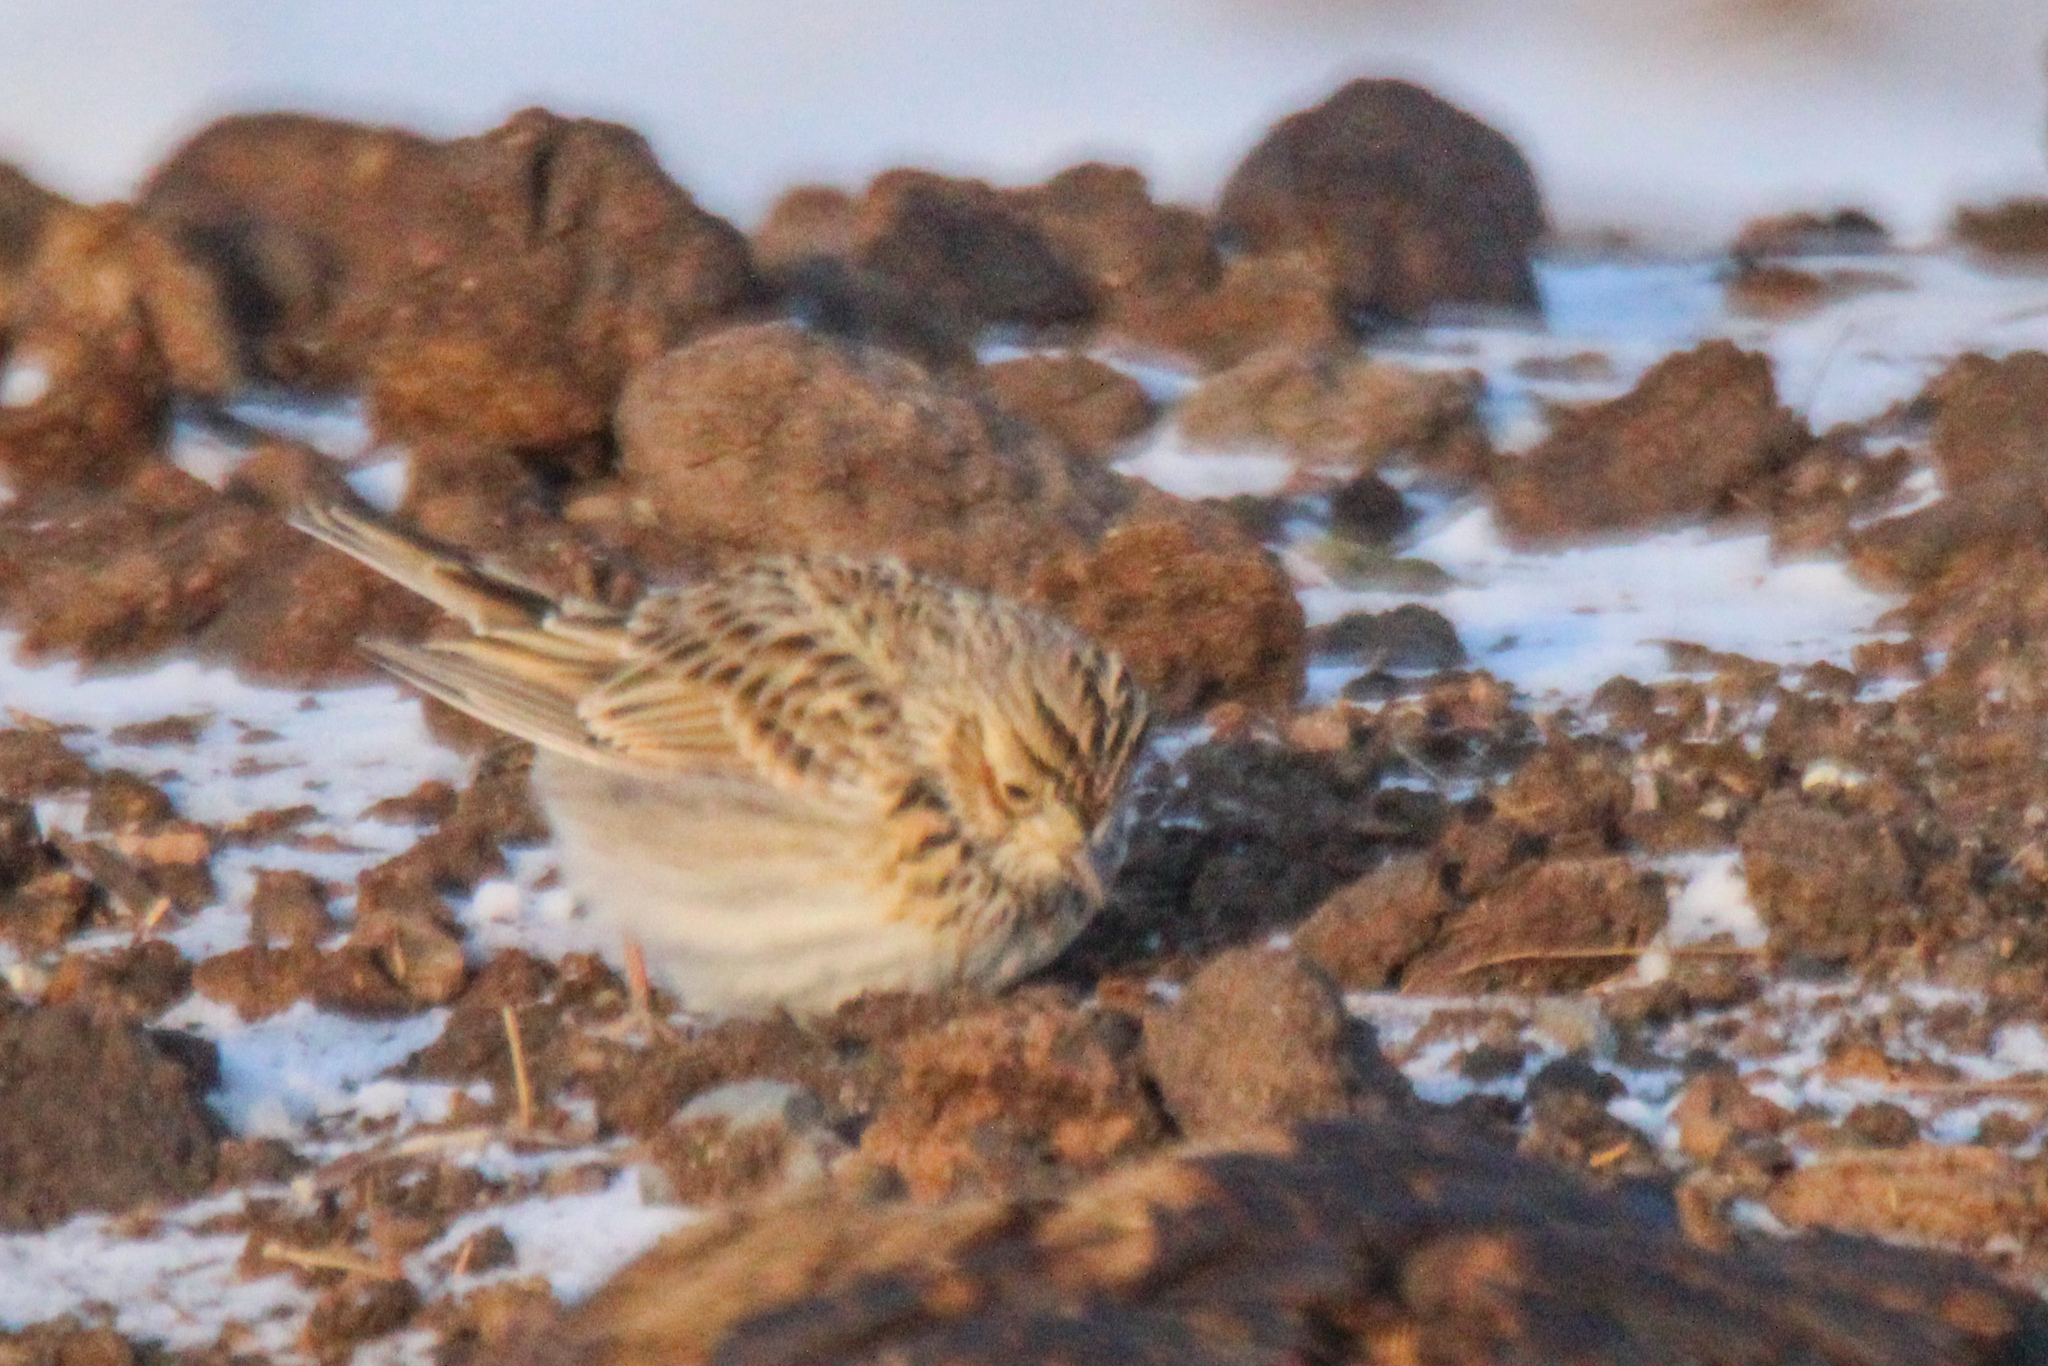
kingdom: Animalia
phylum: Chordata
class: Aves
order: Passeriformes
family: Alaudidae
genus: Alauda
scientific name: Alauda arvensis
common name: Eurasian skylark
